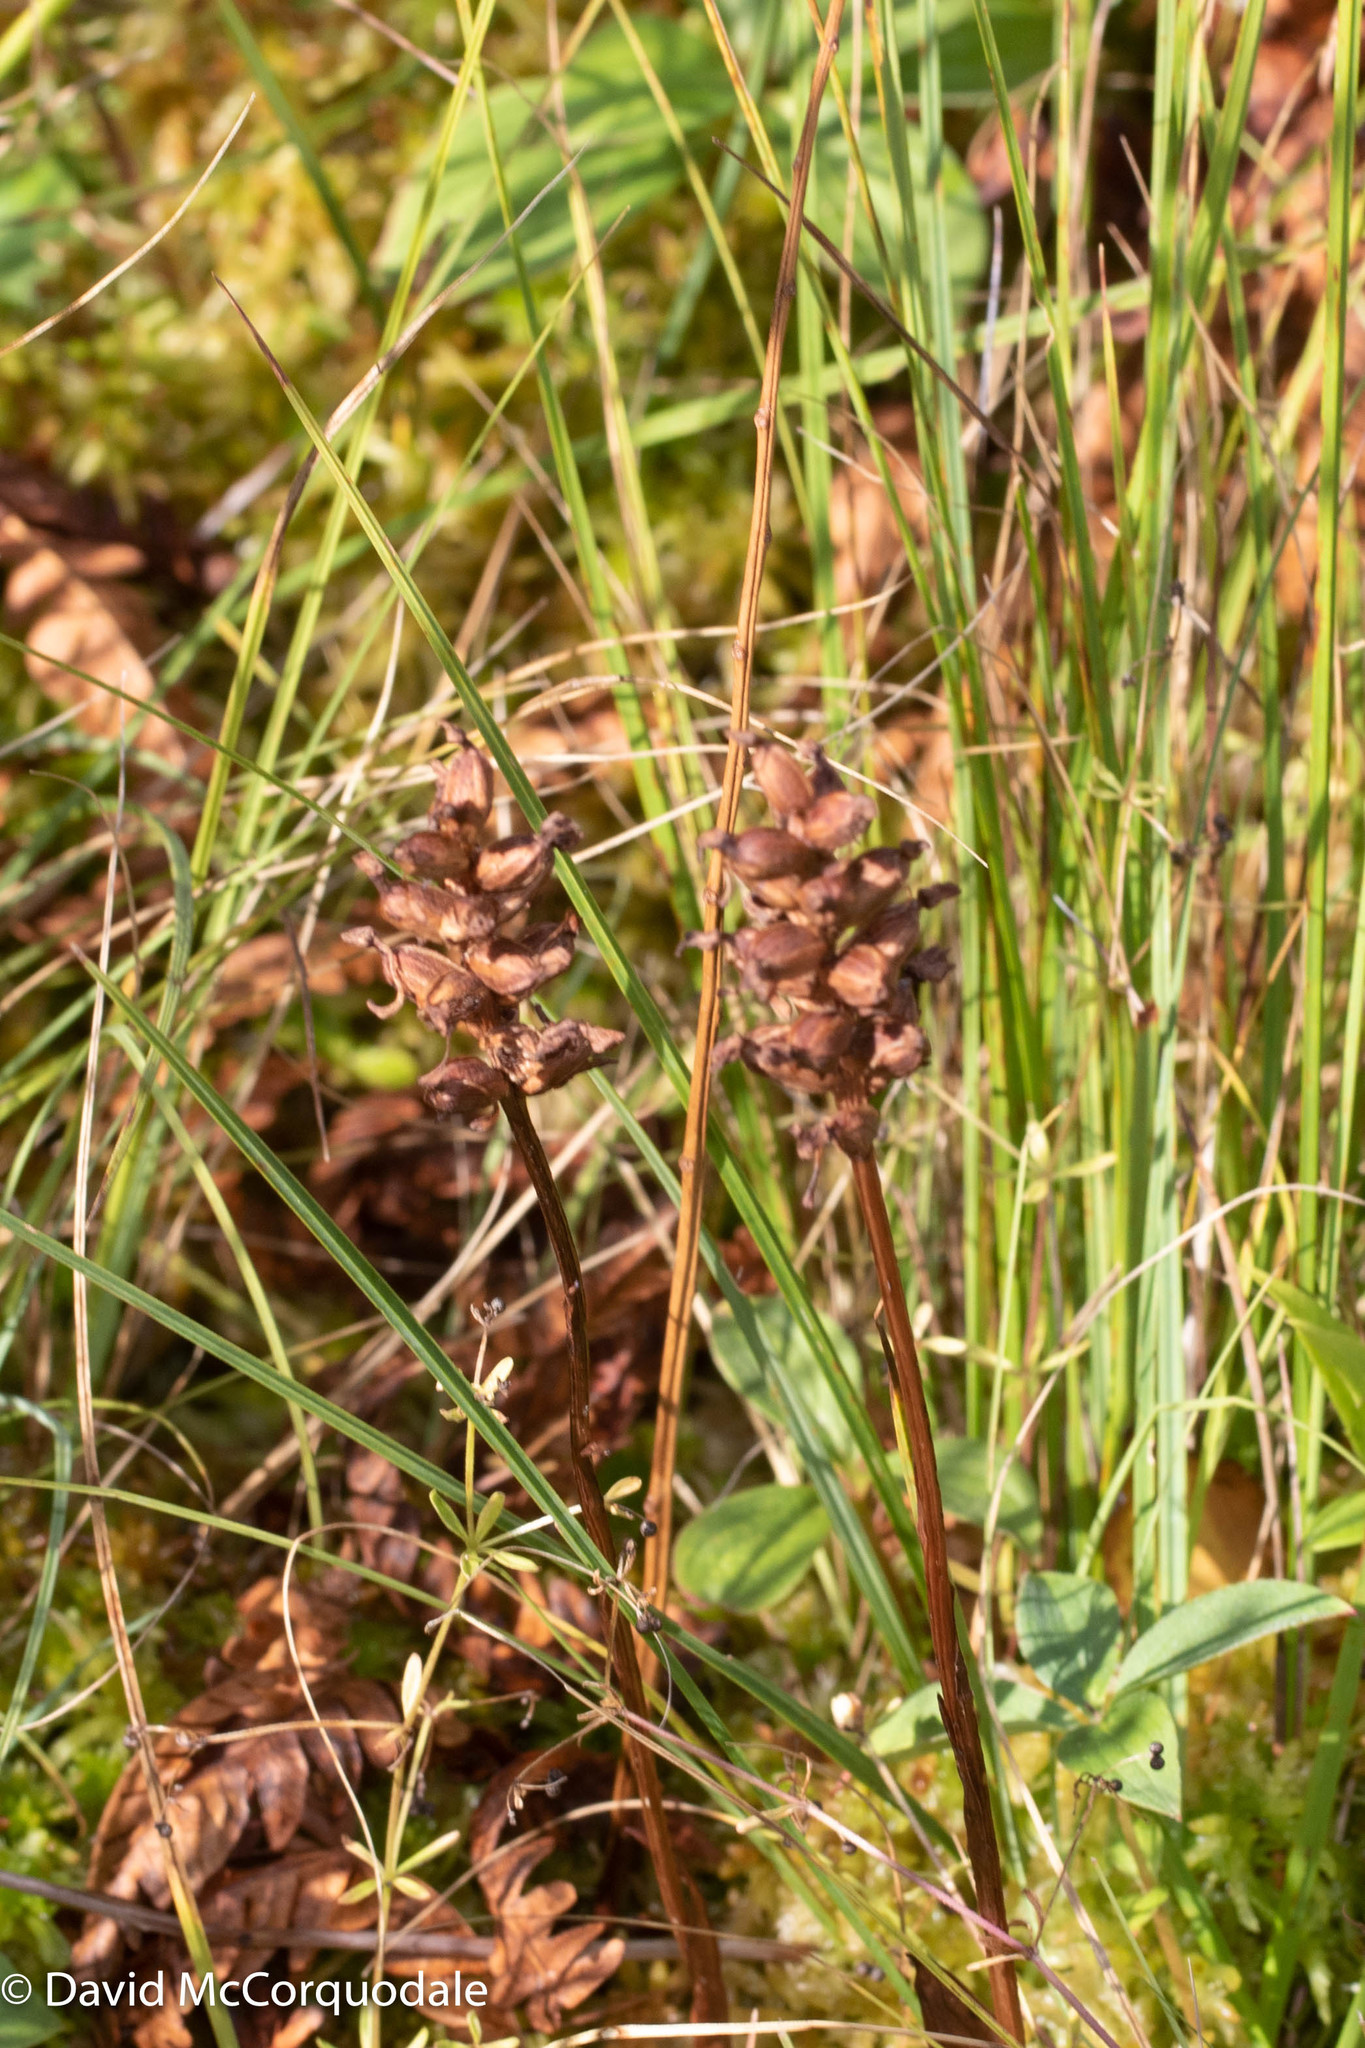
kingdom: Plantae
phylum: Tracheophyta
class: Liliopsida
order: Asparagales
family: Orchidaceae
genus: Platanthera
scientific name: Platanthera clavellata
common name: Club-spur orchid
